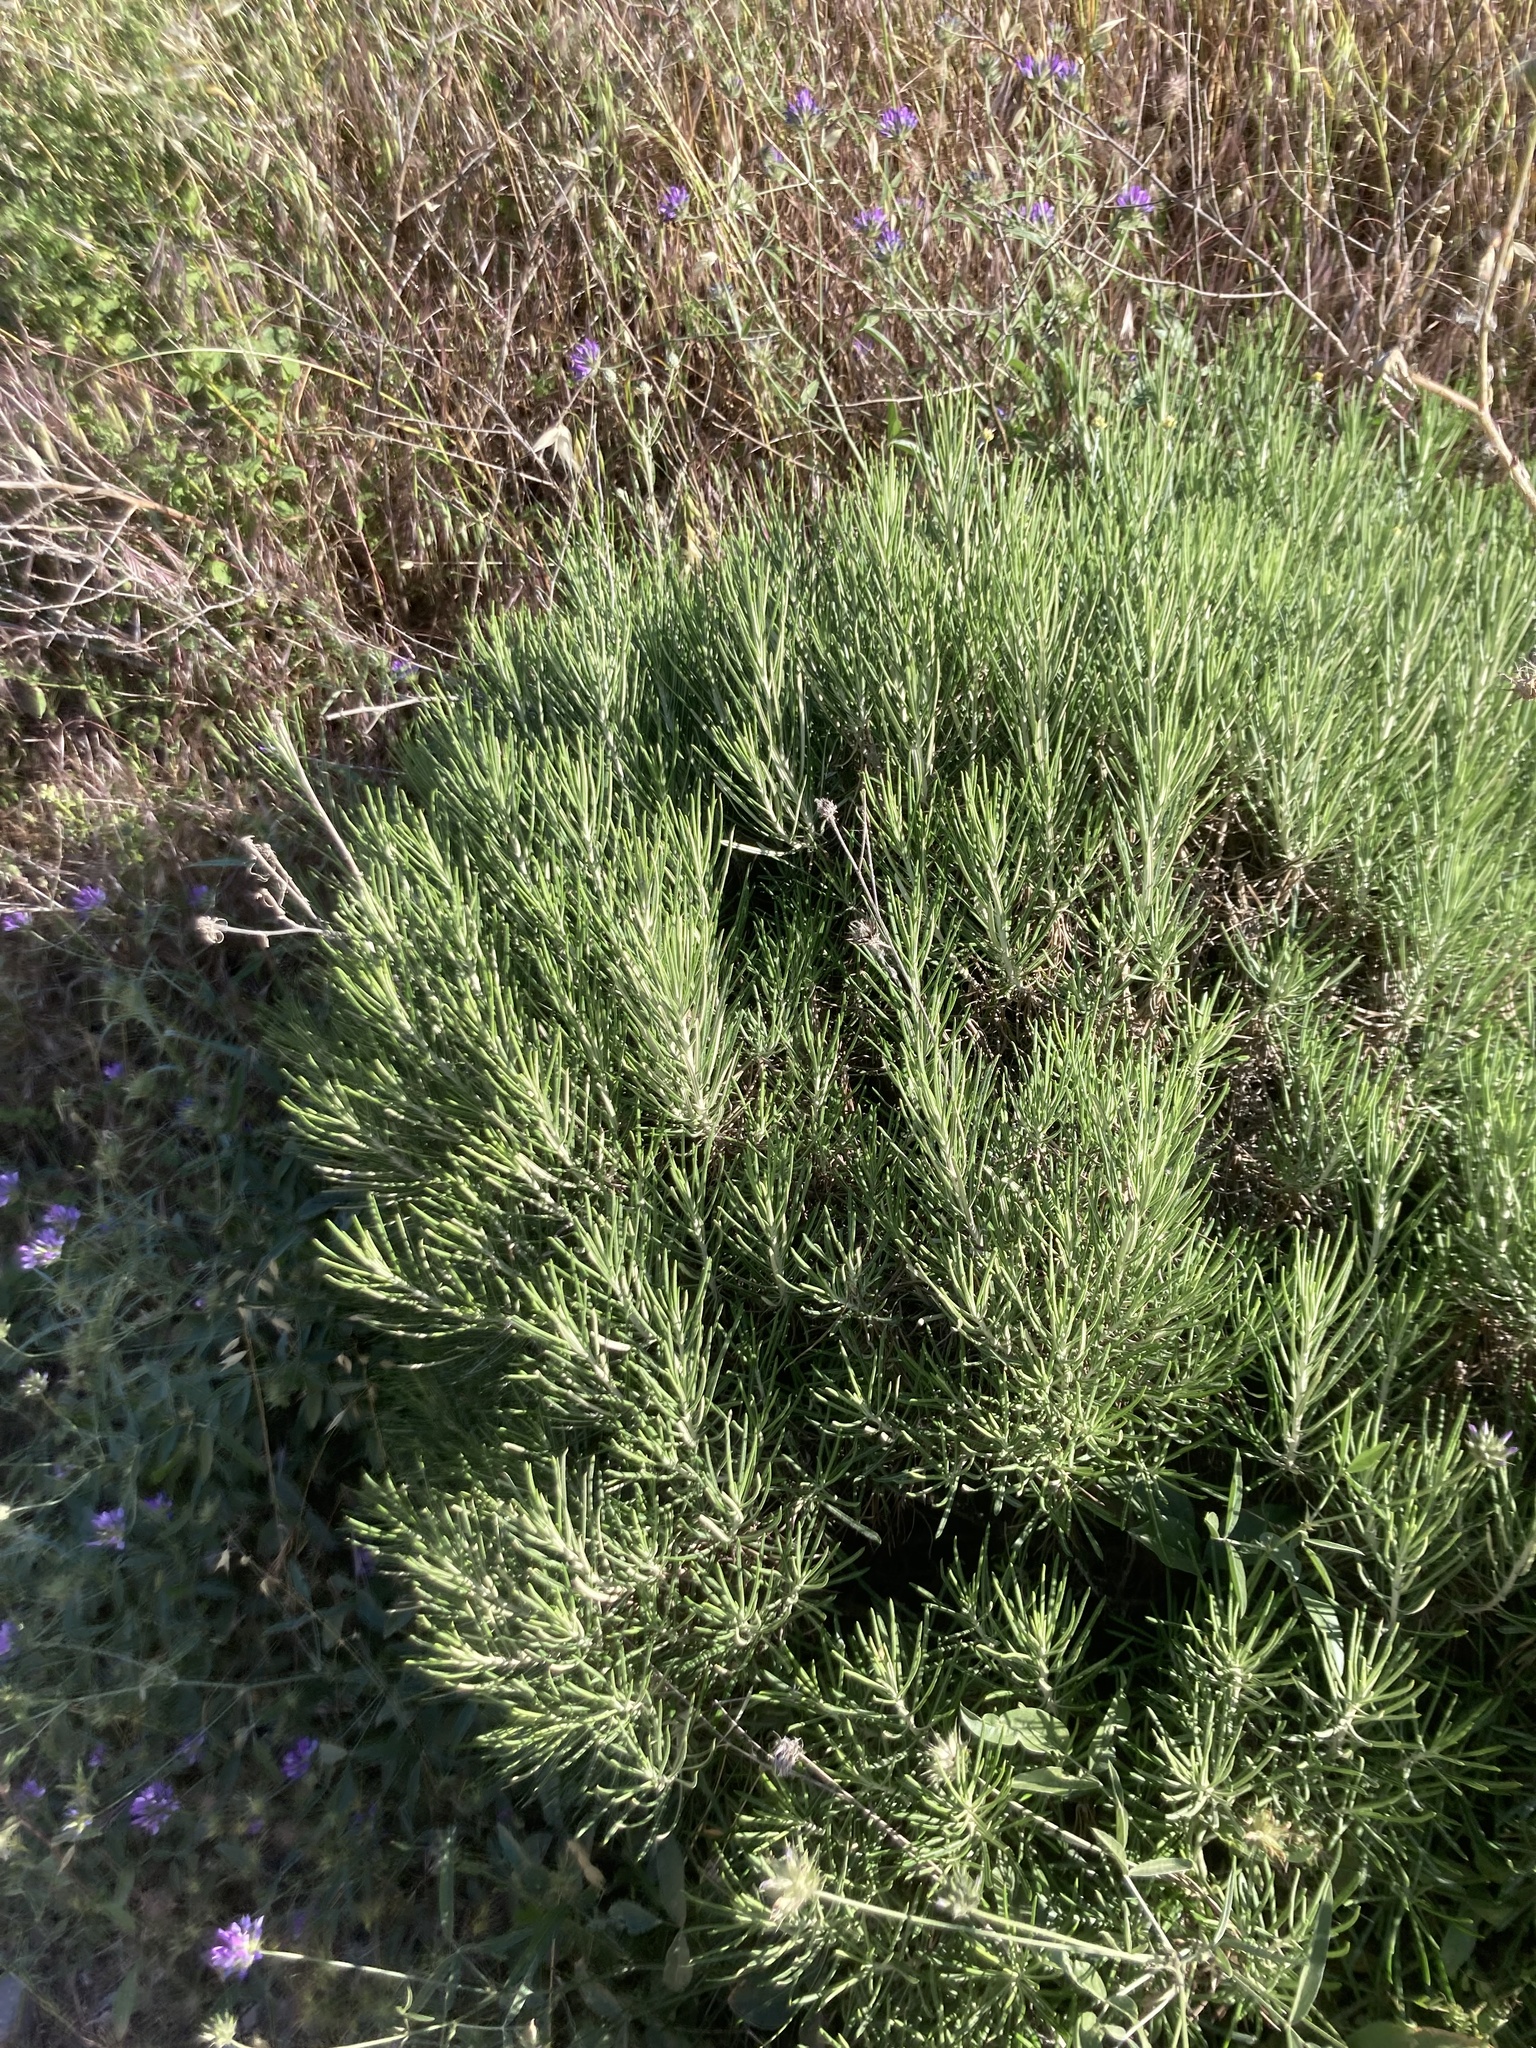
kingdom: Plantae
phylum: Tracheophyta
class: Magnoliopsida
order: Lamiales
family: Lamiaceae
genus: Salvia
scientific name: Salvia rosmarinus
